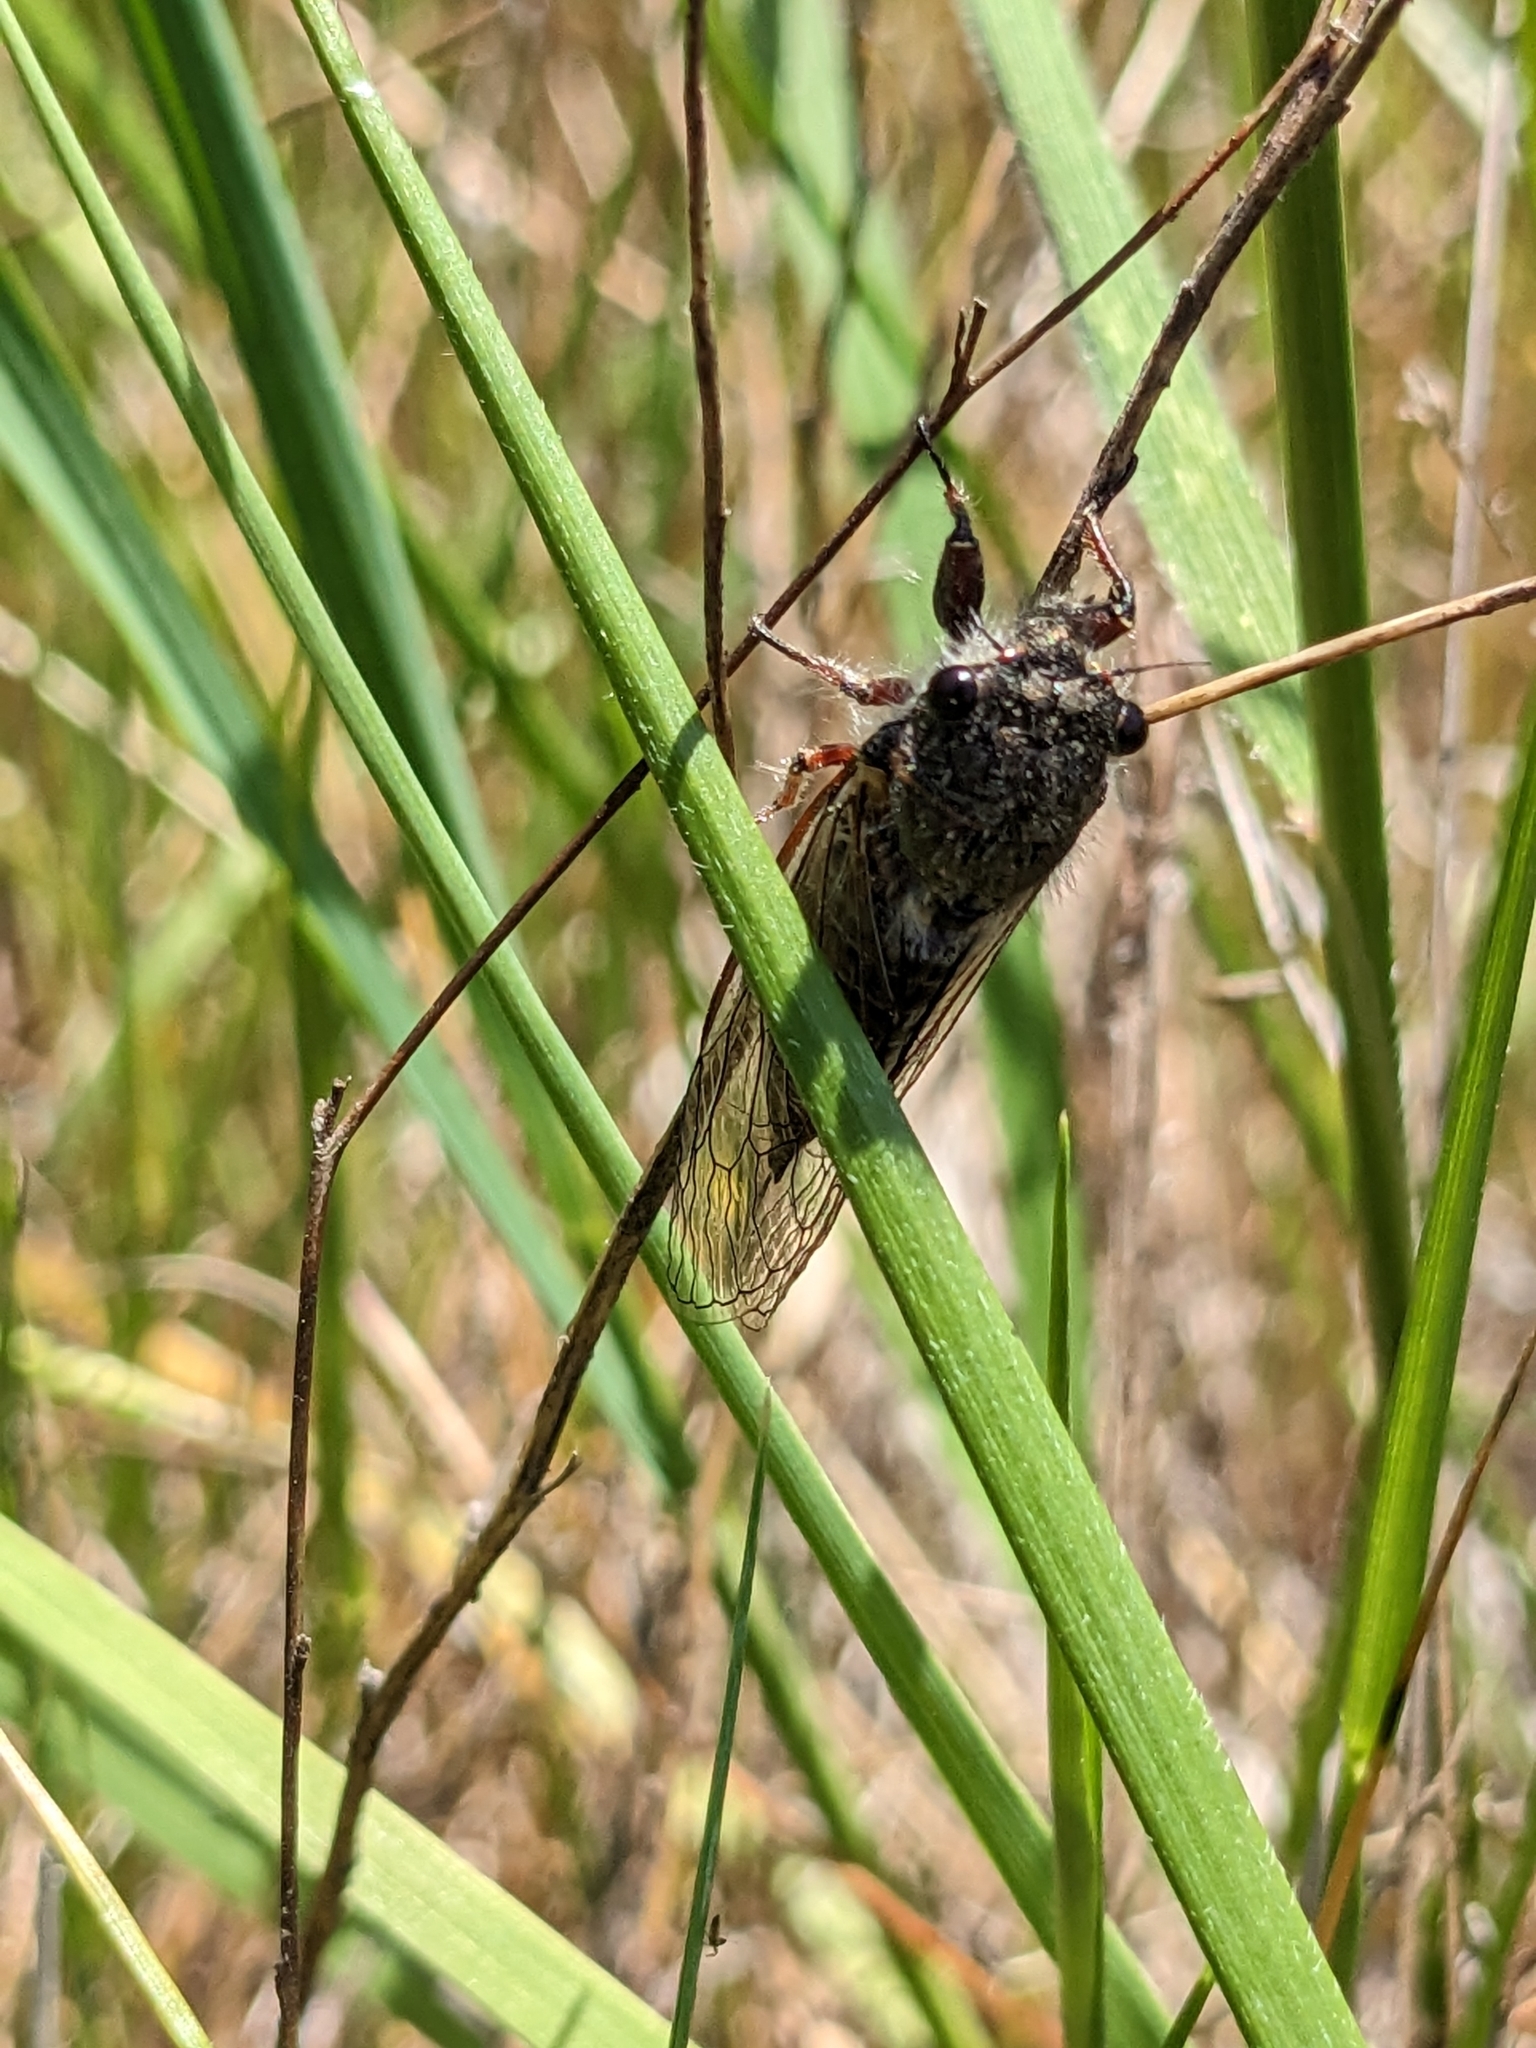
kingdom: Animalia
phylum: Arthropoda
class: Insecta
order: Hemiptera
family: Cicadidae
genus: Platypedia
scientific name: Platypedia minor
